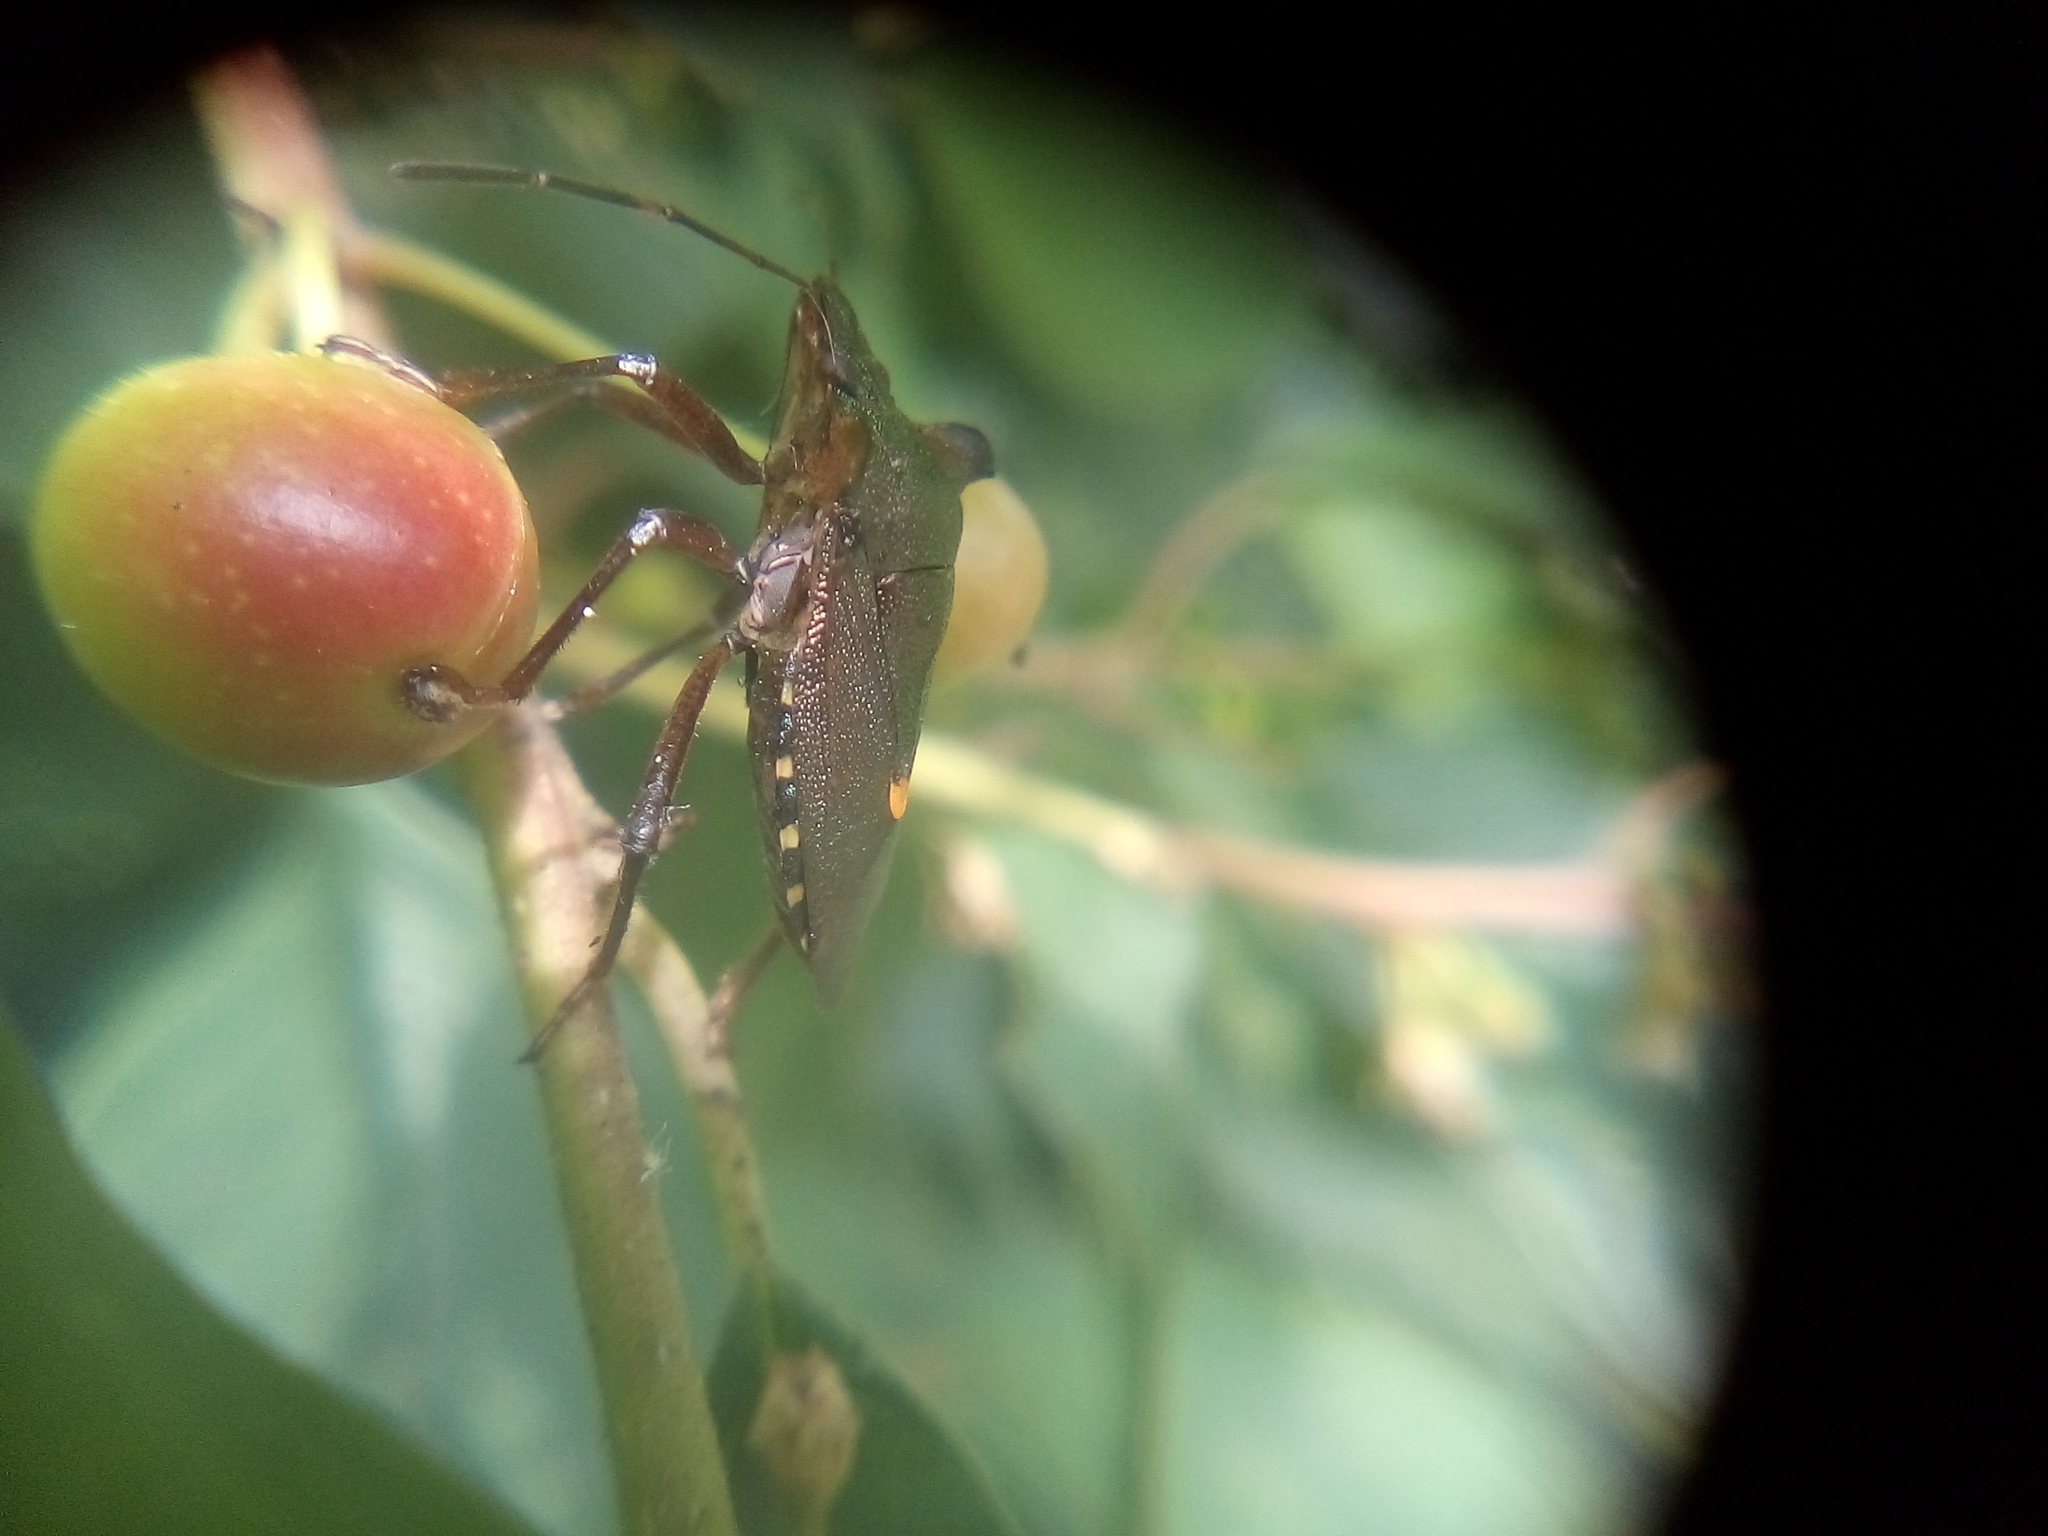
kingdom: Animalia
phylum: Arthropoda
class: Insecta
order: Hemiptera
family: Pentatomidae
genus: Pentatoma
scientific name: Pentatoma rufipes
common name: Forest bug
